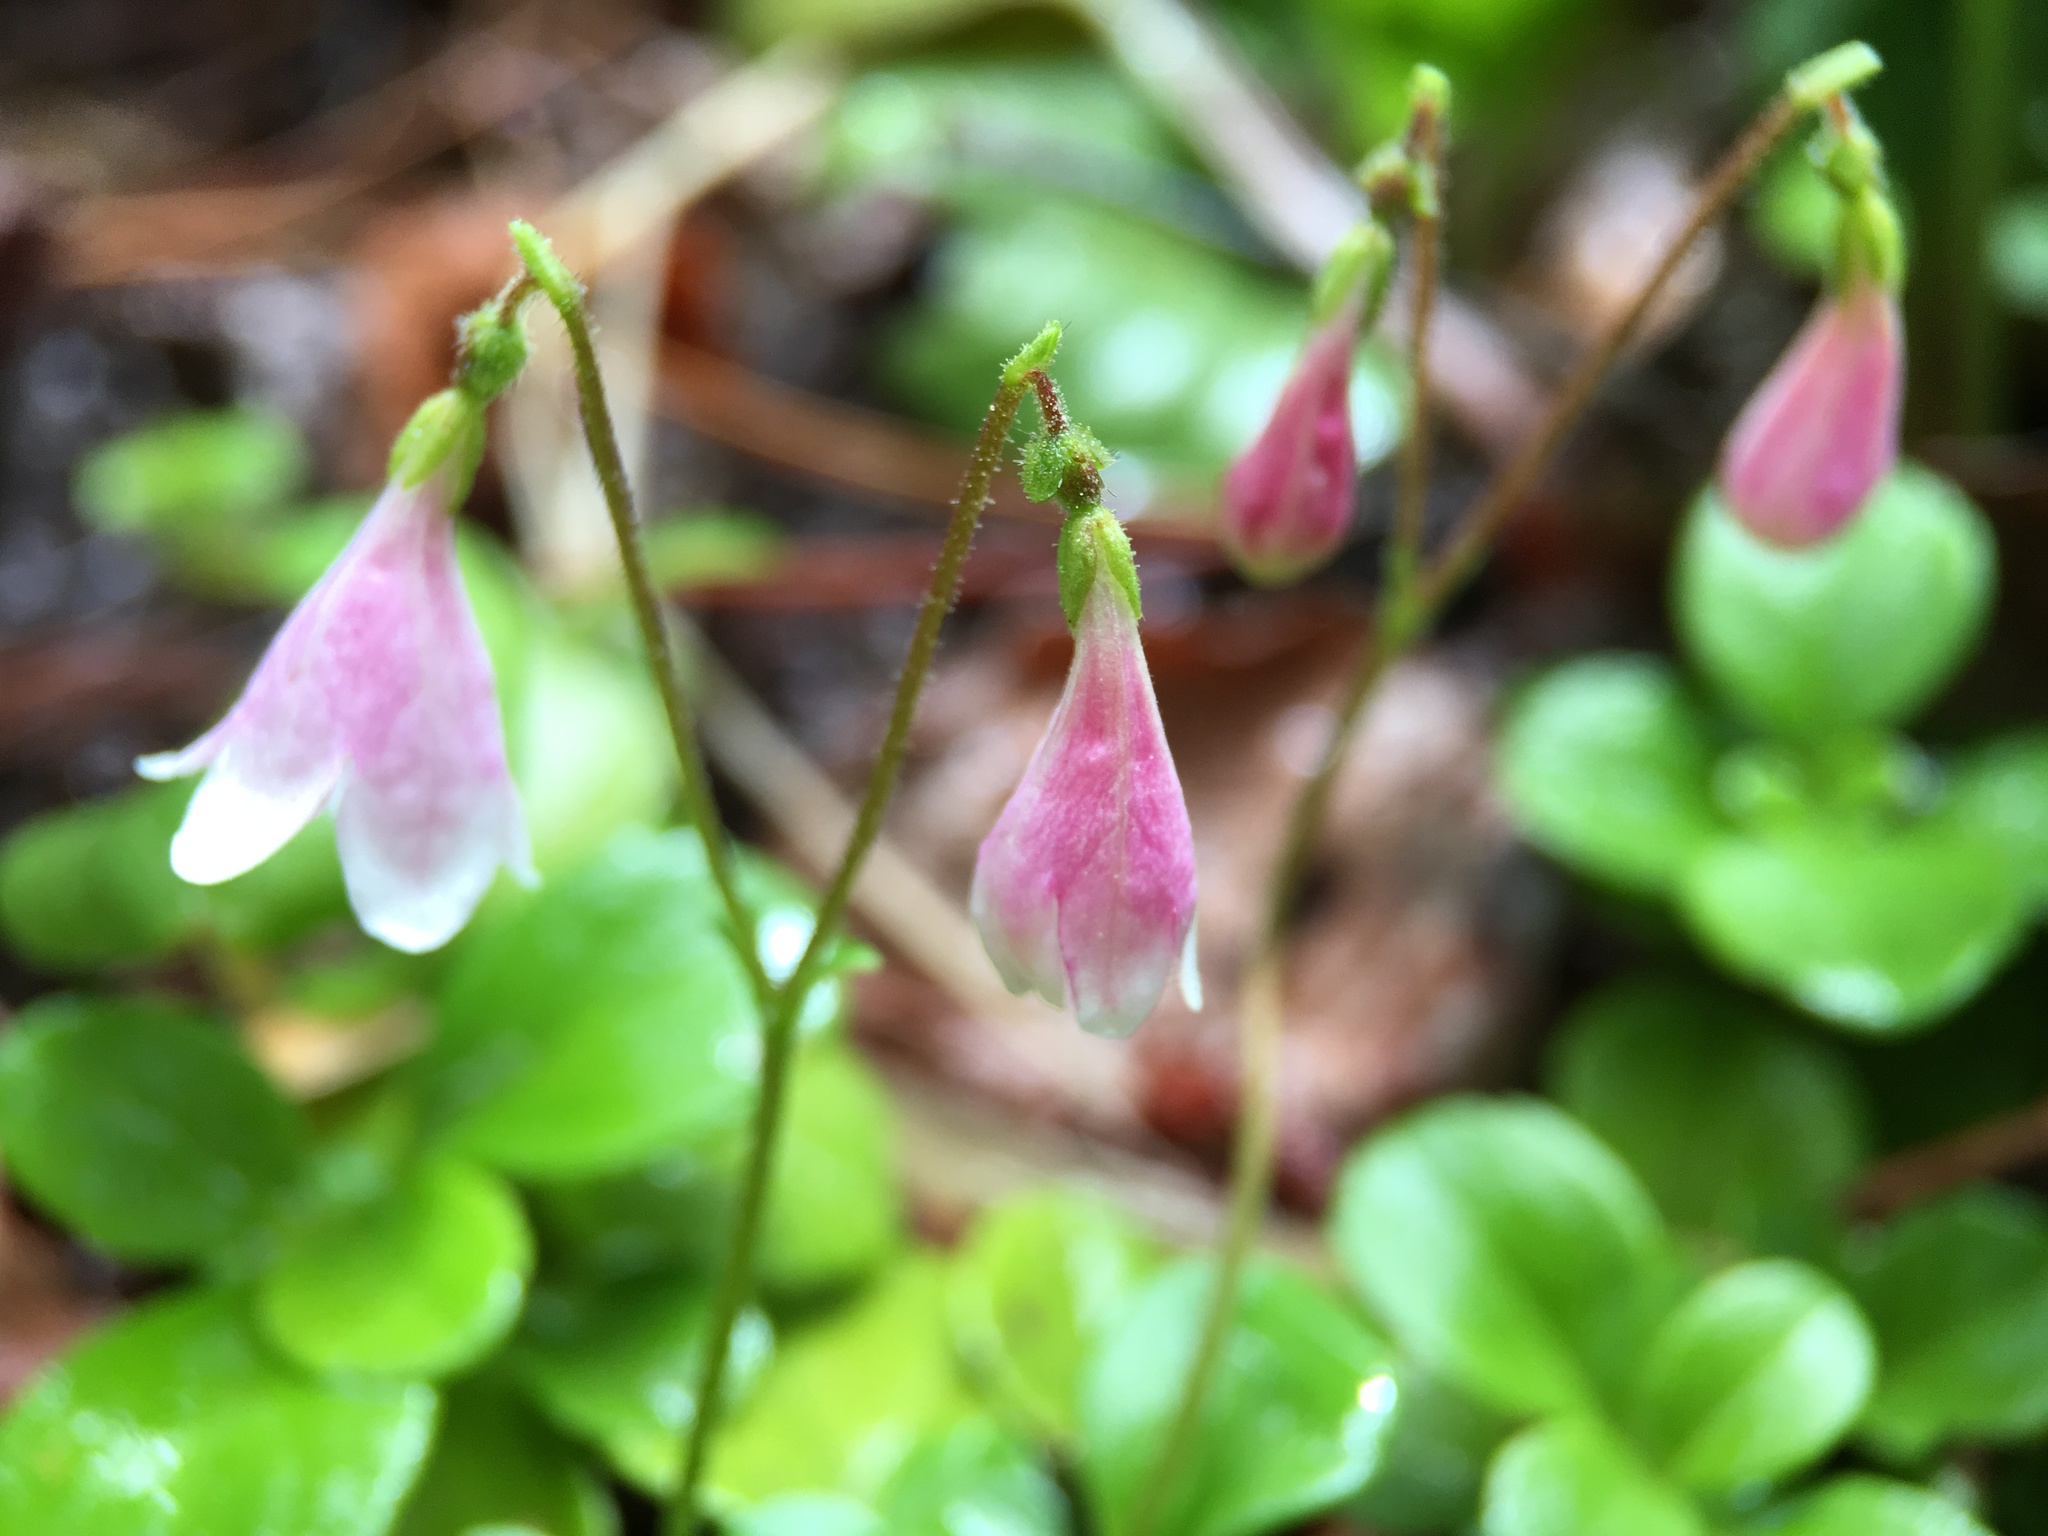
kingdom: Plantae
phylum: Tracheophyta
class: Magnoliopsida
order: Dipsacales
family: Caprifoliaceae
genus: Linnaea
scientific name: Linnaea borealis
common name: Twinflower
